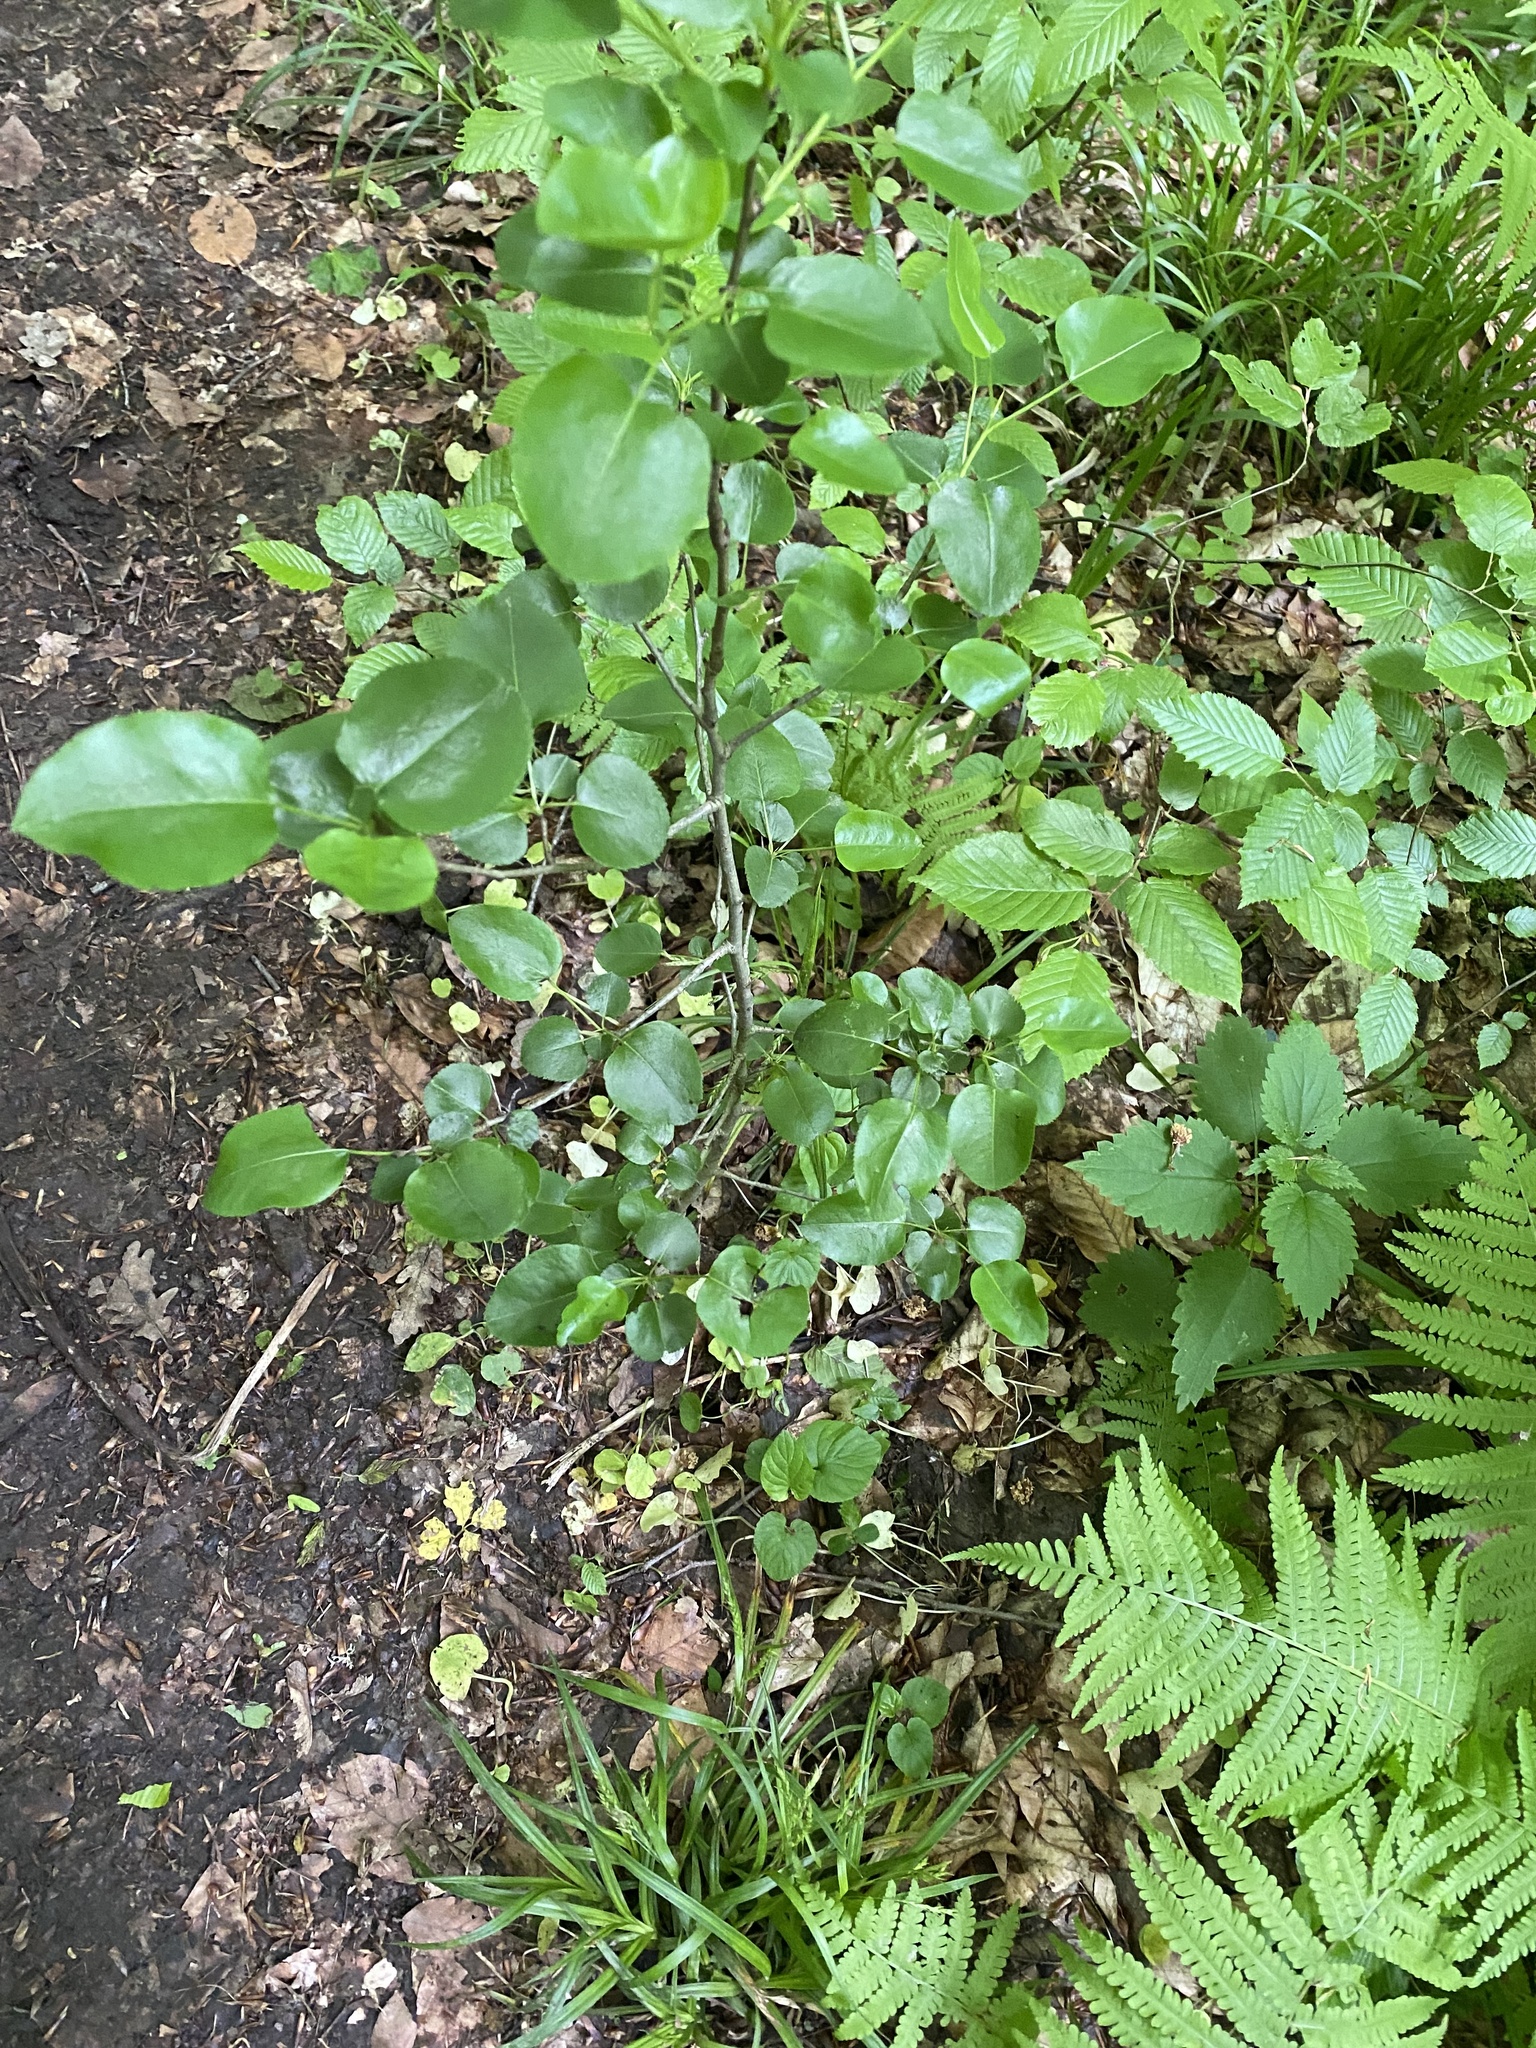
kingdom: Plantae
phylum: Tracheophyta
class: Magnoliopsida
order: Rosales
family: Rosaceae
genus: Pyrus
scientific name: Pyrus communis
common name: Pear
